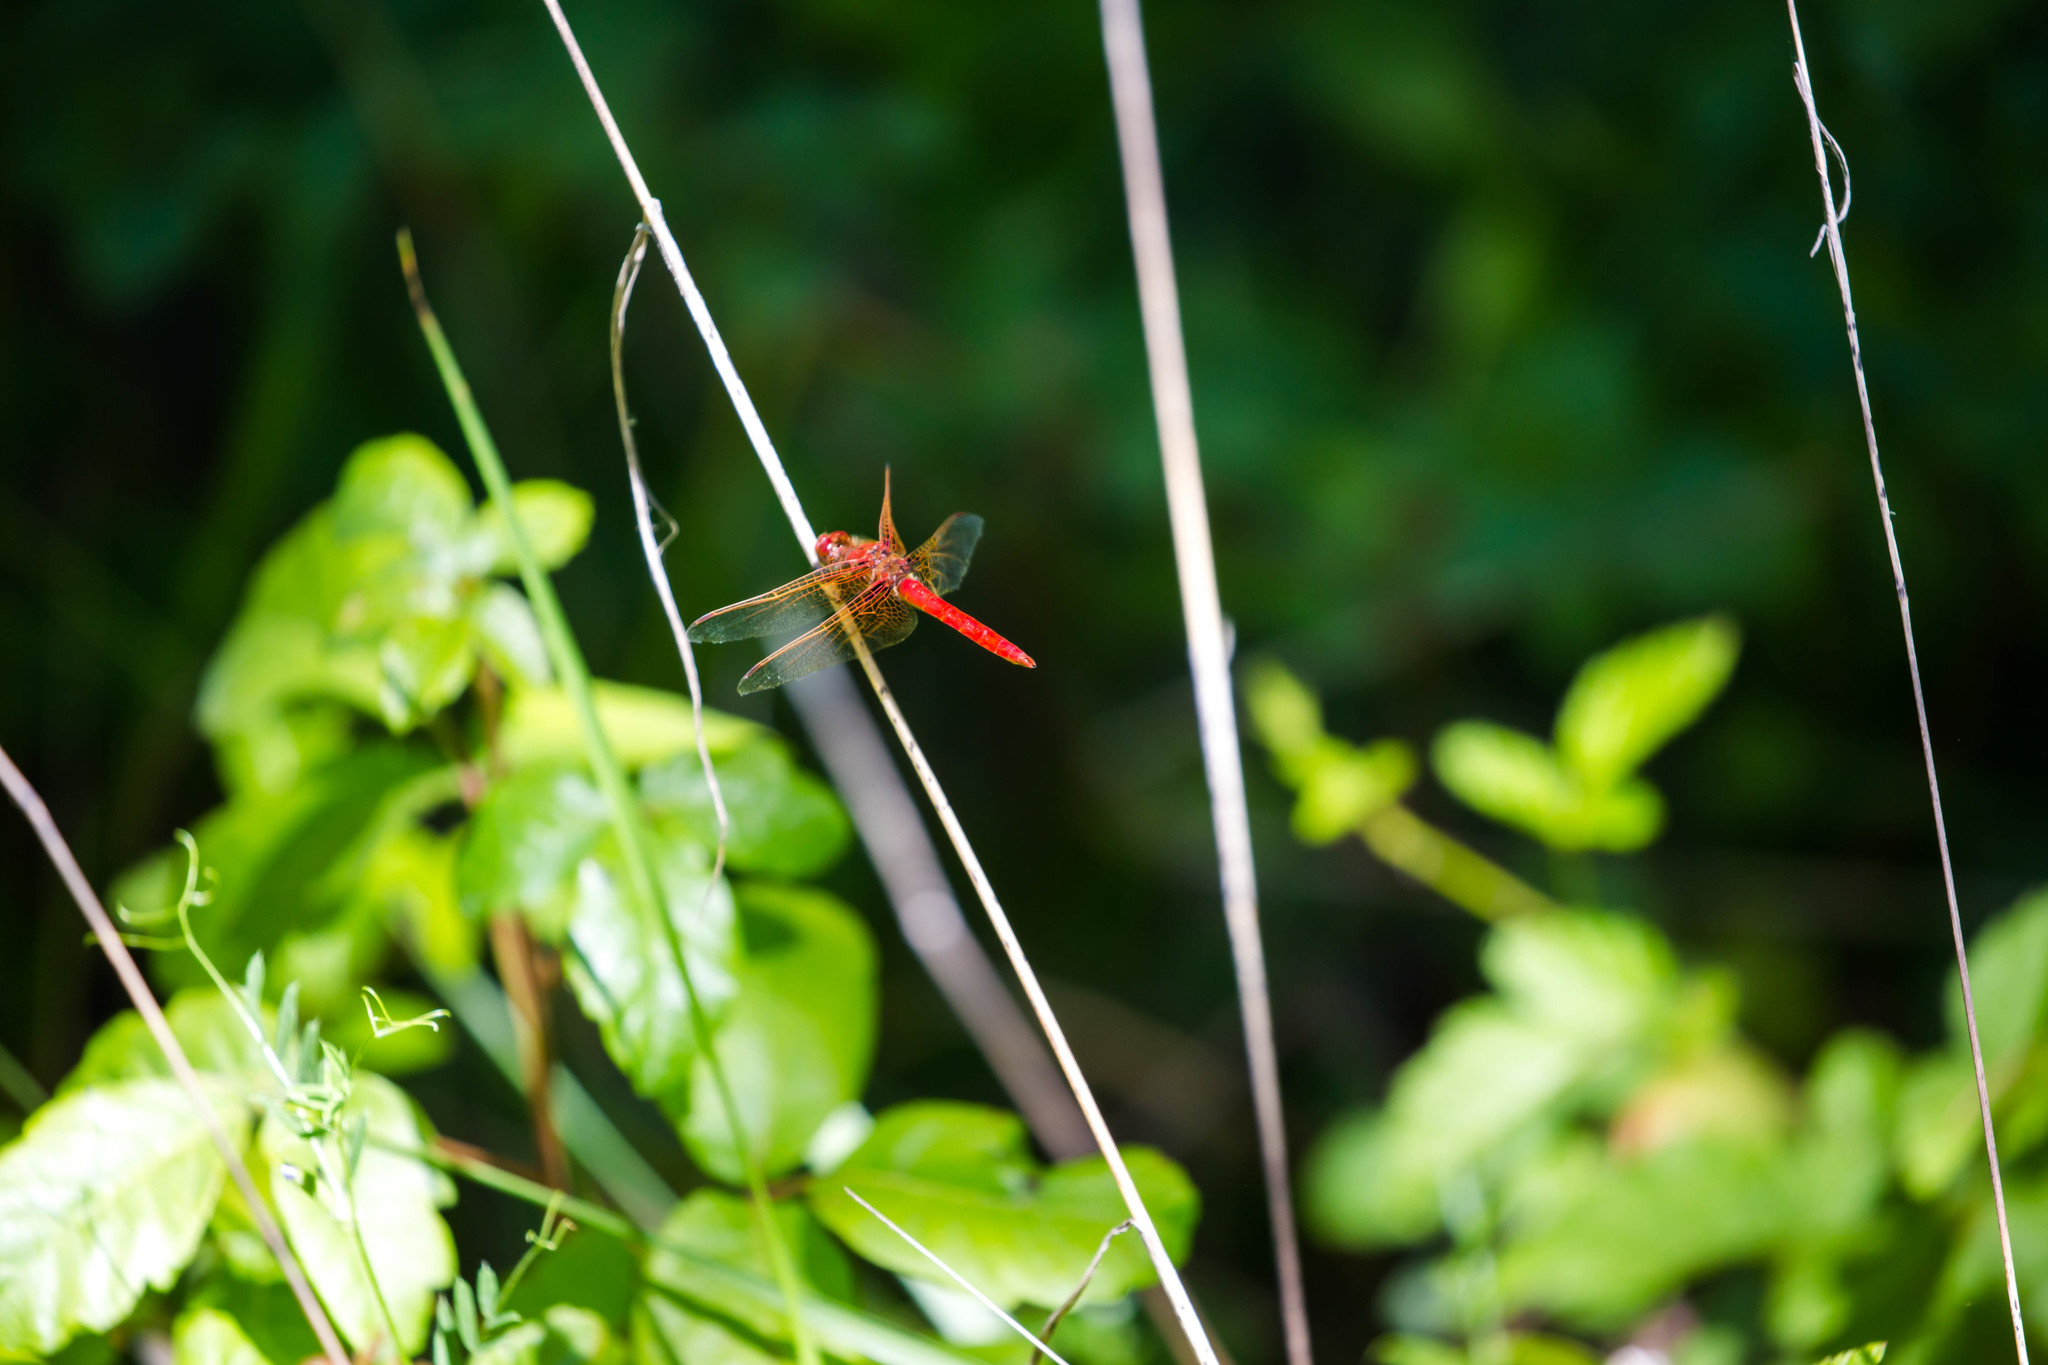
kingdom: Animalia
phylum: Arthropoda
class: Insecta
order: Odonata
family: Libellulidae
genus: Sympetrum
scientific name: Sympetrum illotum
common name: Cardinal meadowhawk
